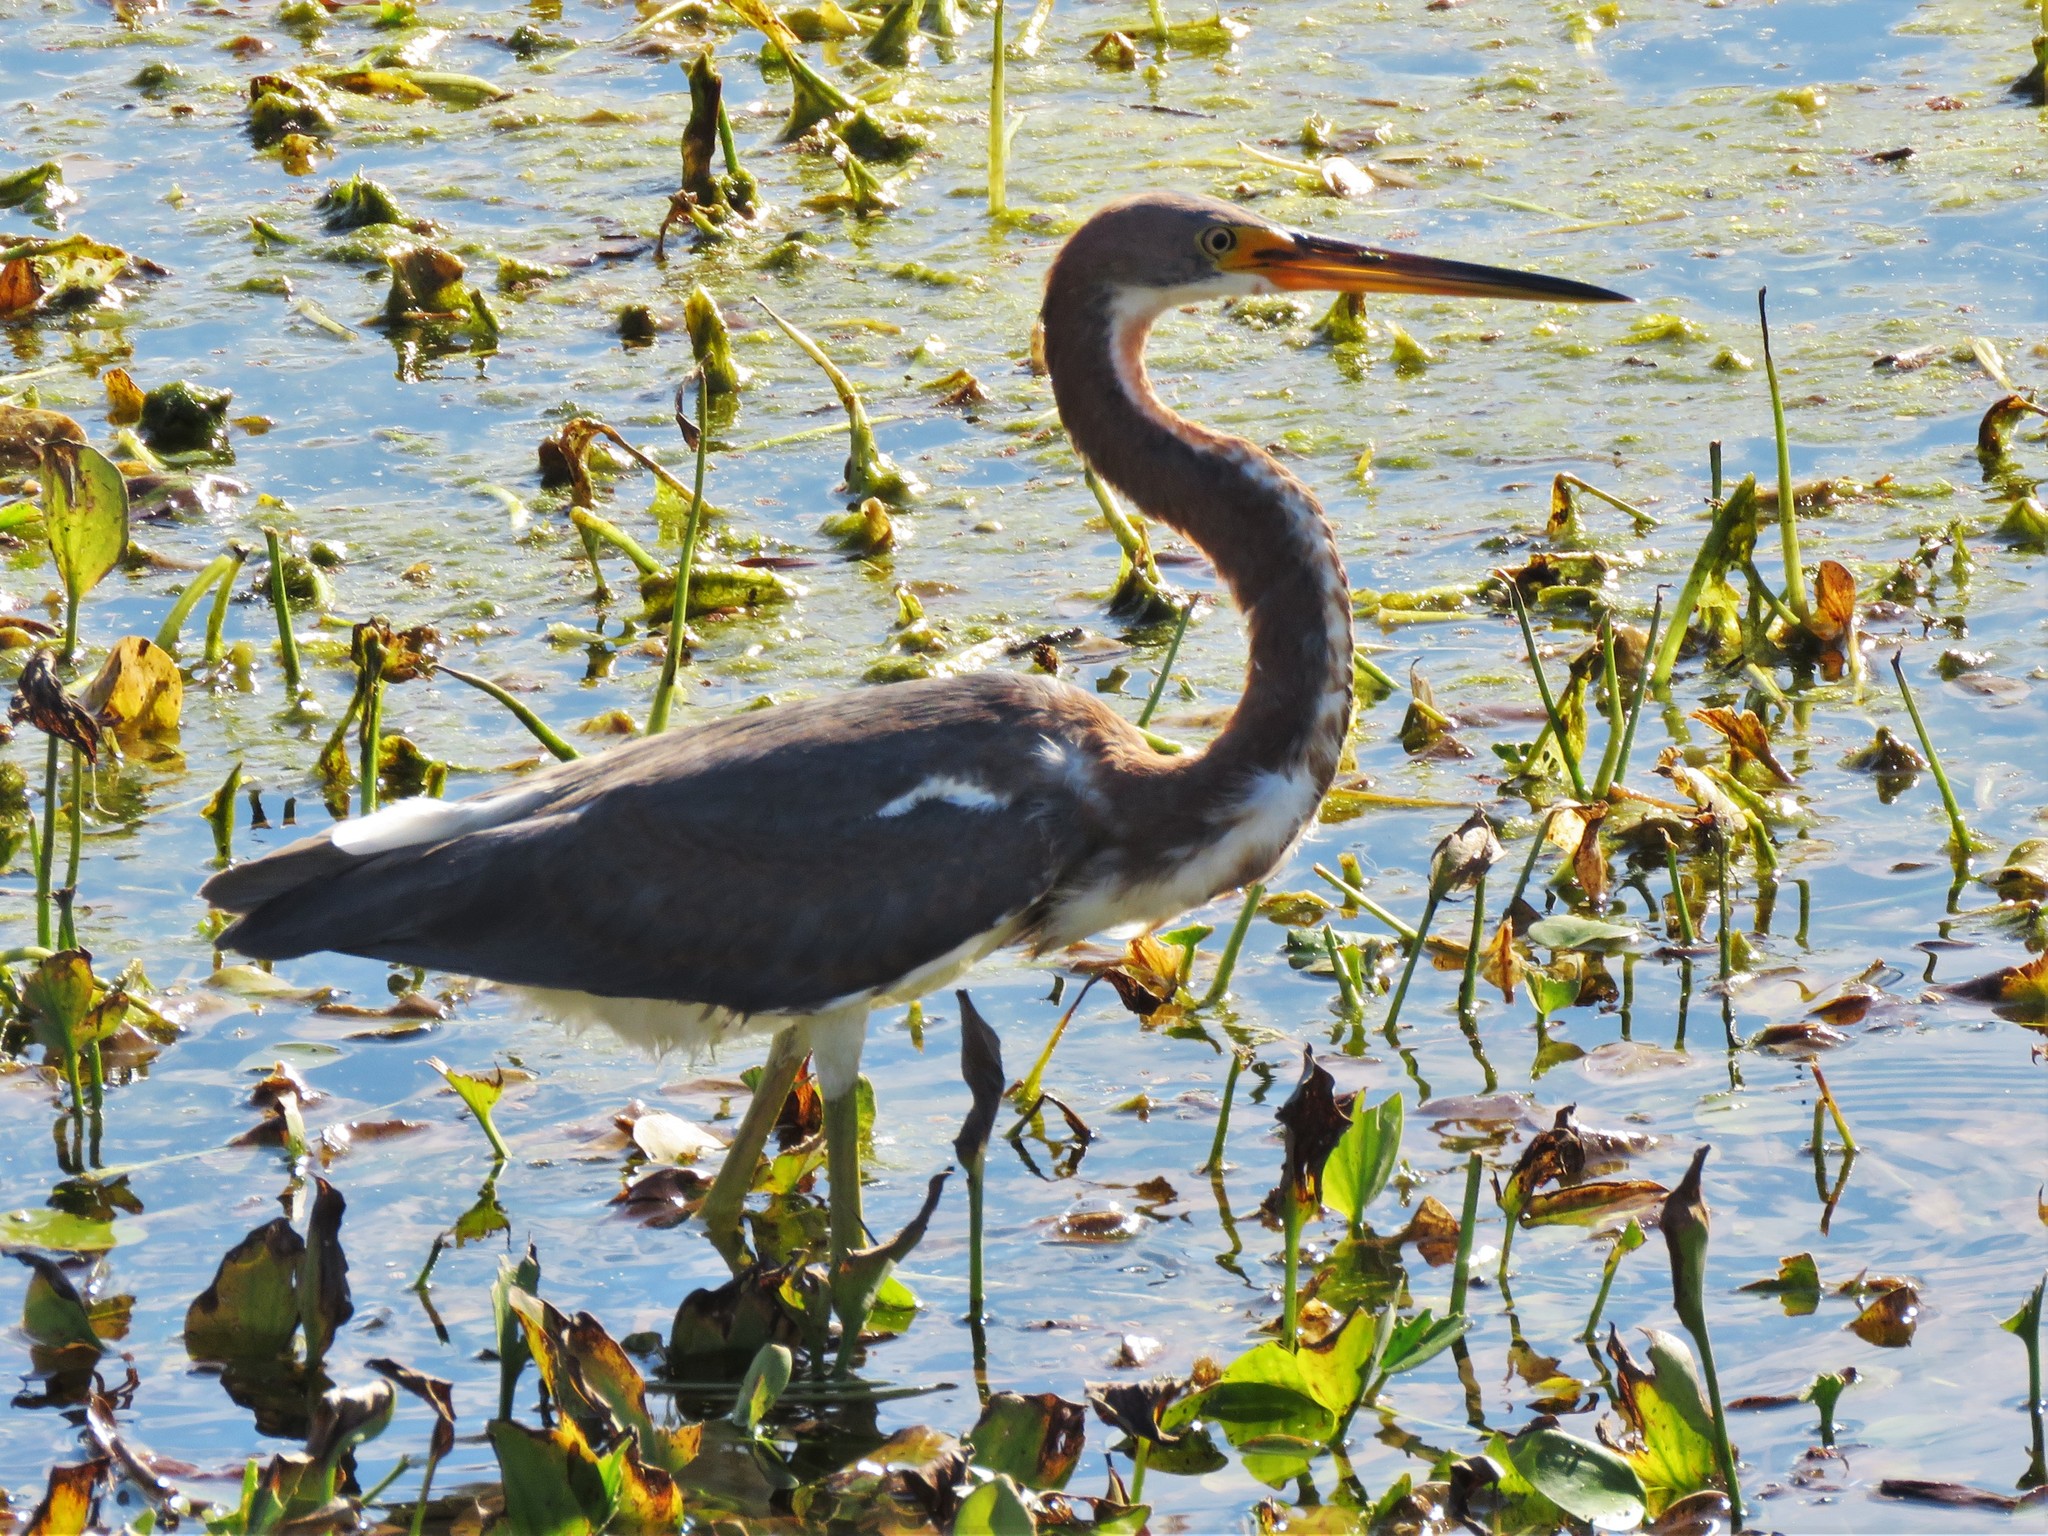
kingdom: Animalia
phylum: Chordata
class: Aves
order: Pelecaniformes
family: Ardeidae
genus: Egretta
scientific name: Egretta tricolor
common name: Tricolored heron
